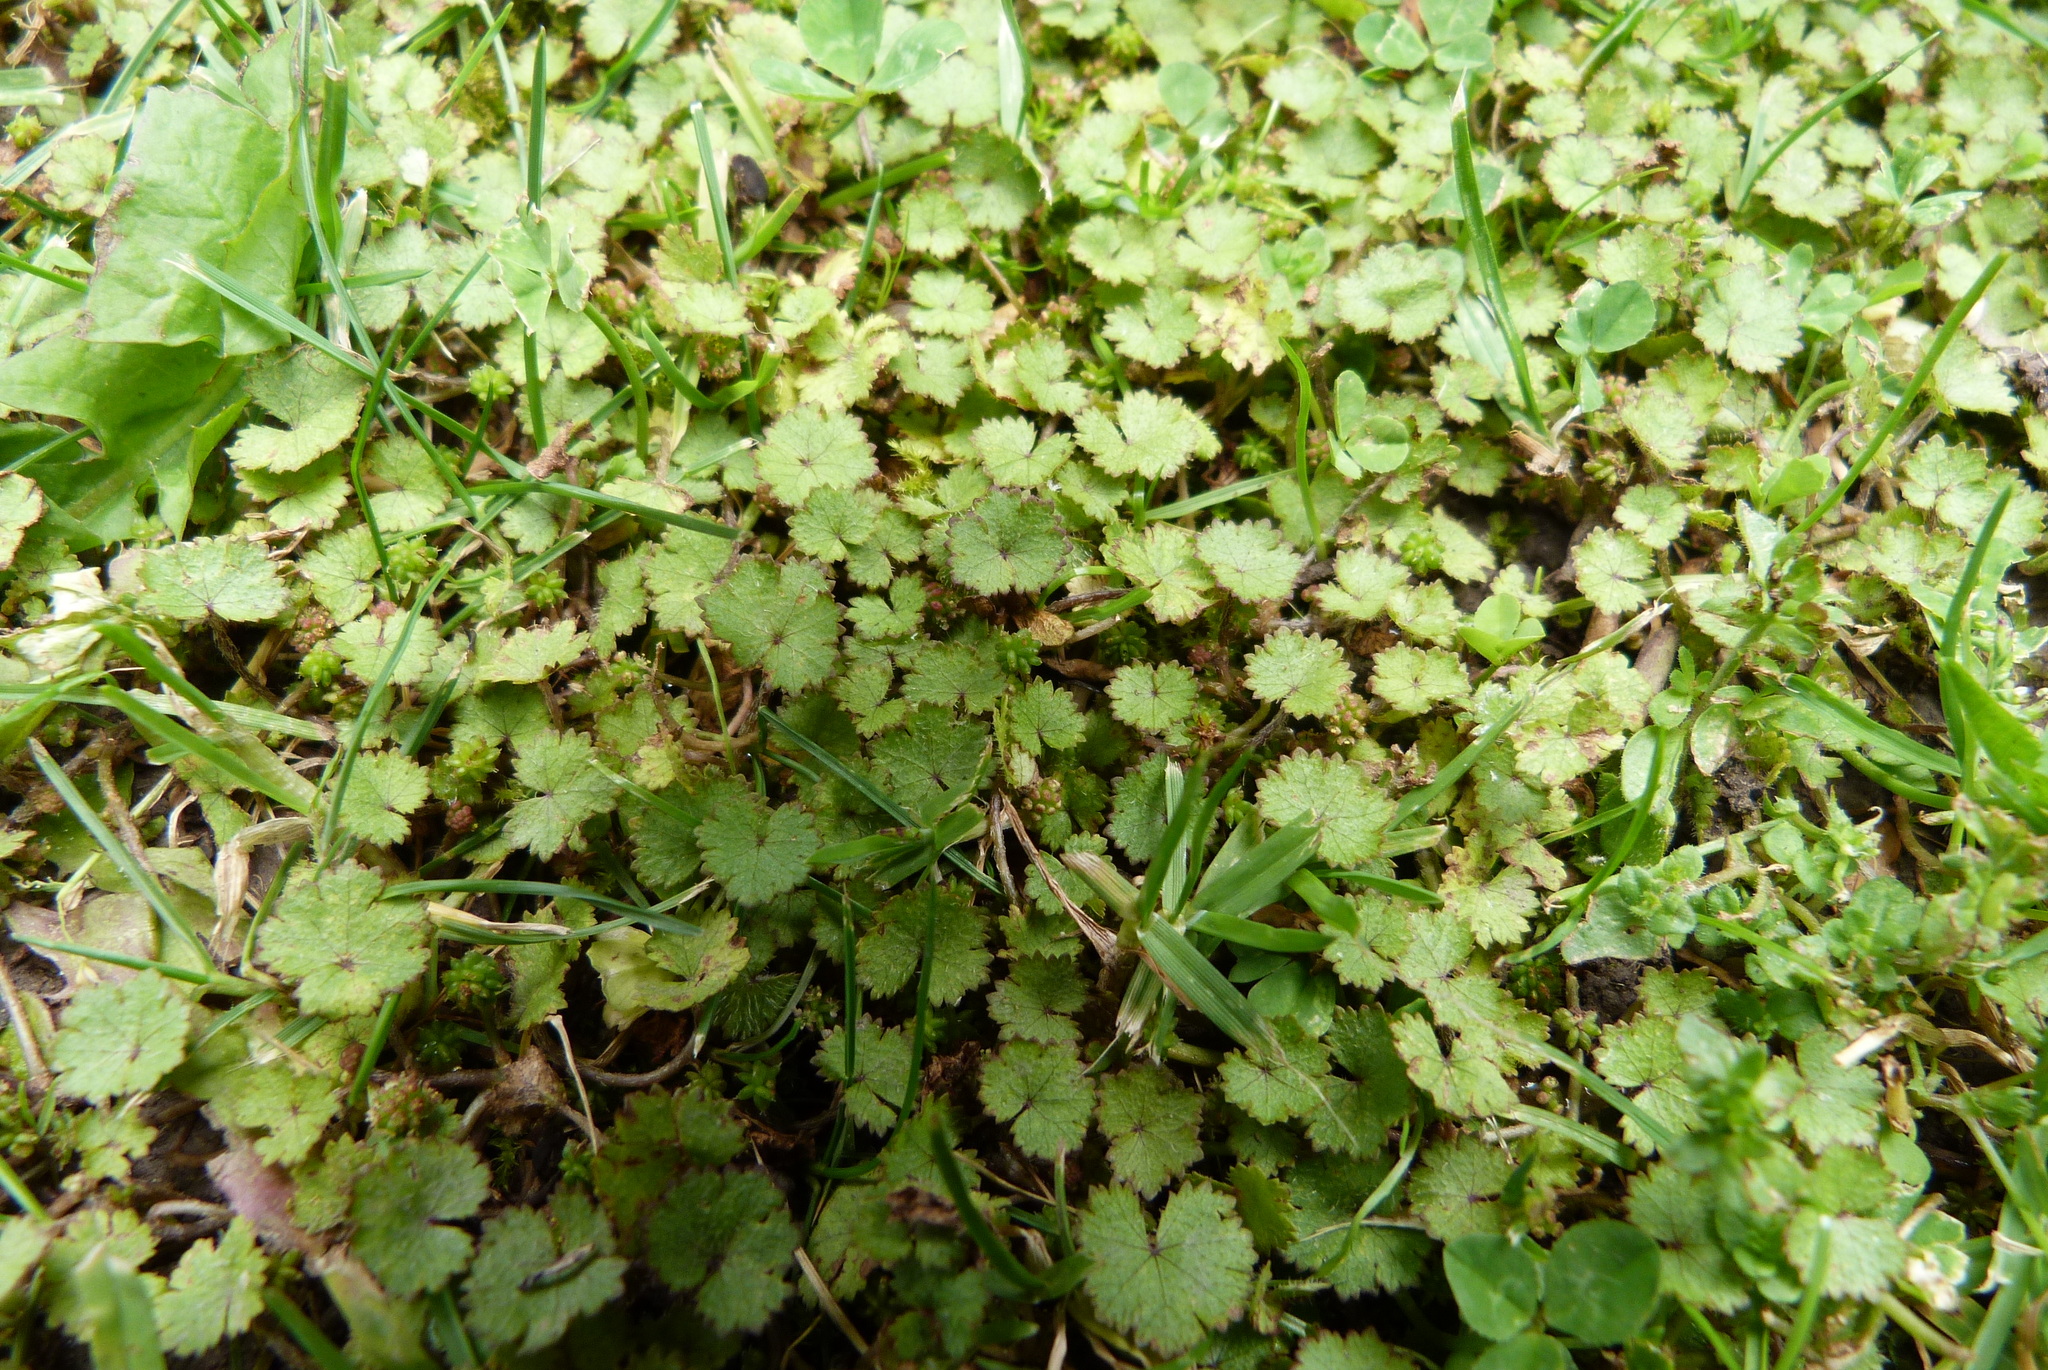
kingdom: Plantae
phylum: Tracheophyta
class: Magnoliopsida
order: Apiales
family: Araliaceae
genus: Hydrocotyle
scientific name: Hydrocotyle moschata
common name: Hairy pennywort
